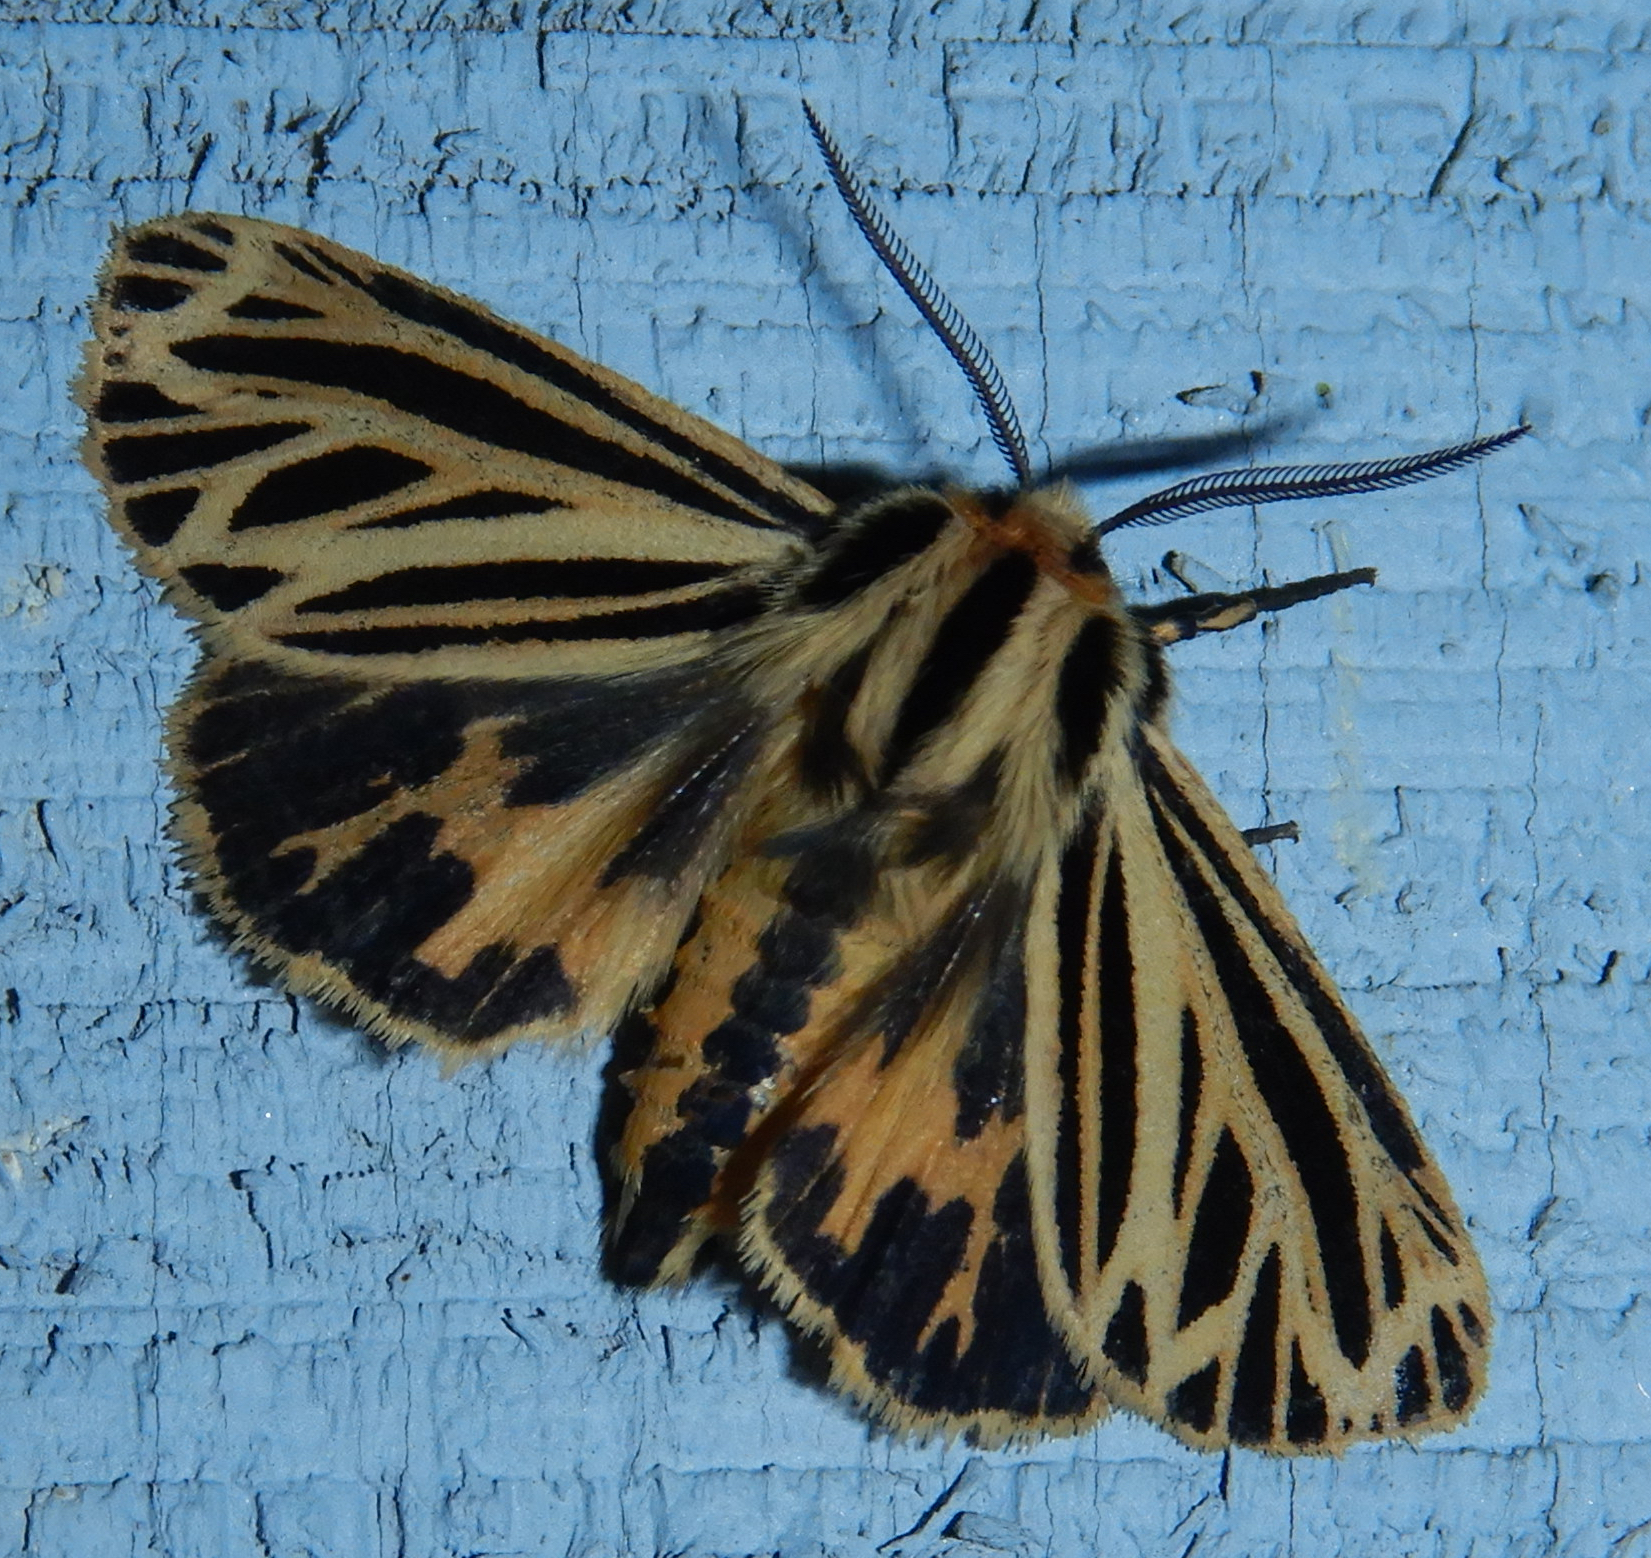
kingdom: Animalia
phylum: Arthropoda
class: Insecta
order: Lepidoptera
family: Erebidae
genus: Grammia
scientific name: Grammia virguncula
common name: Little tiger moth
